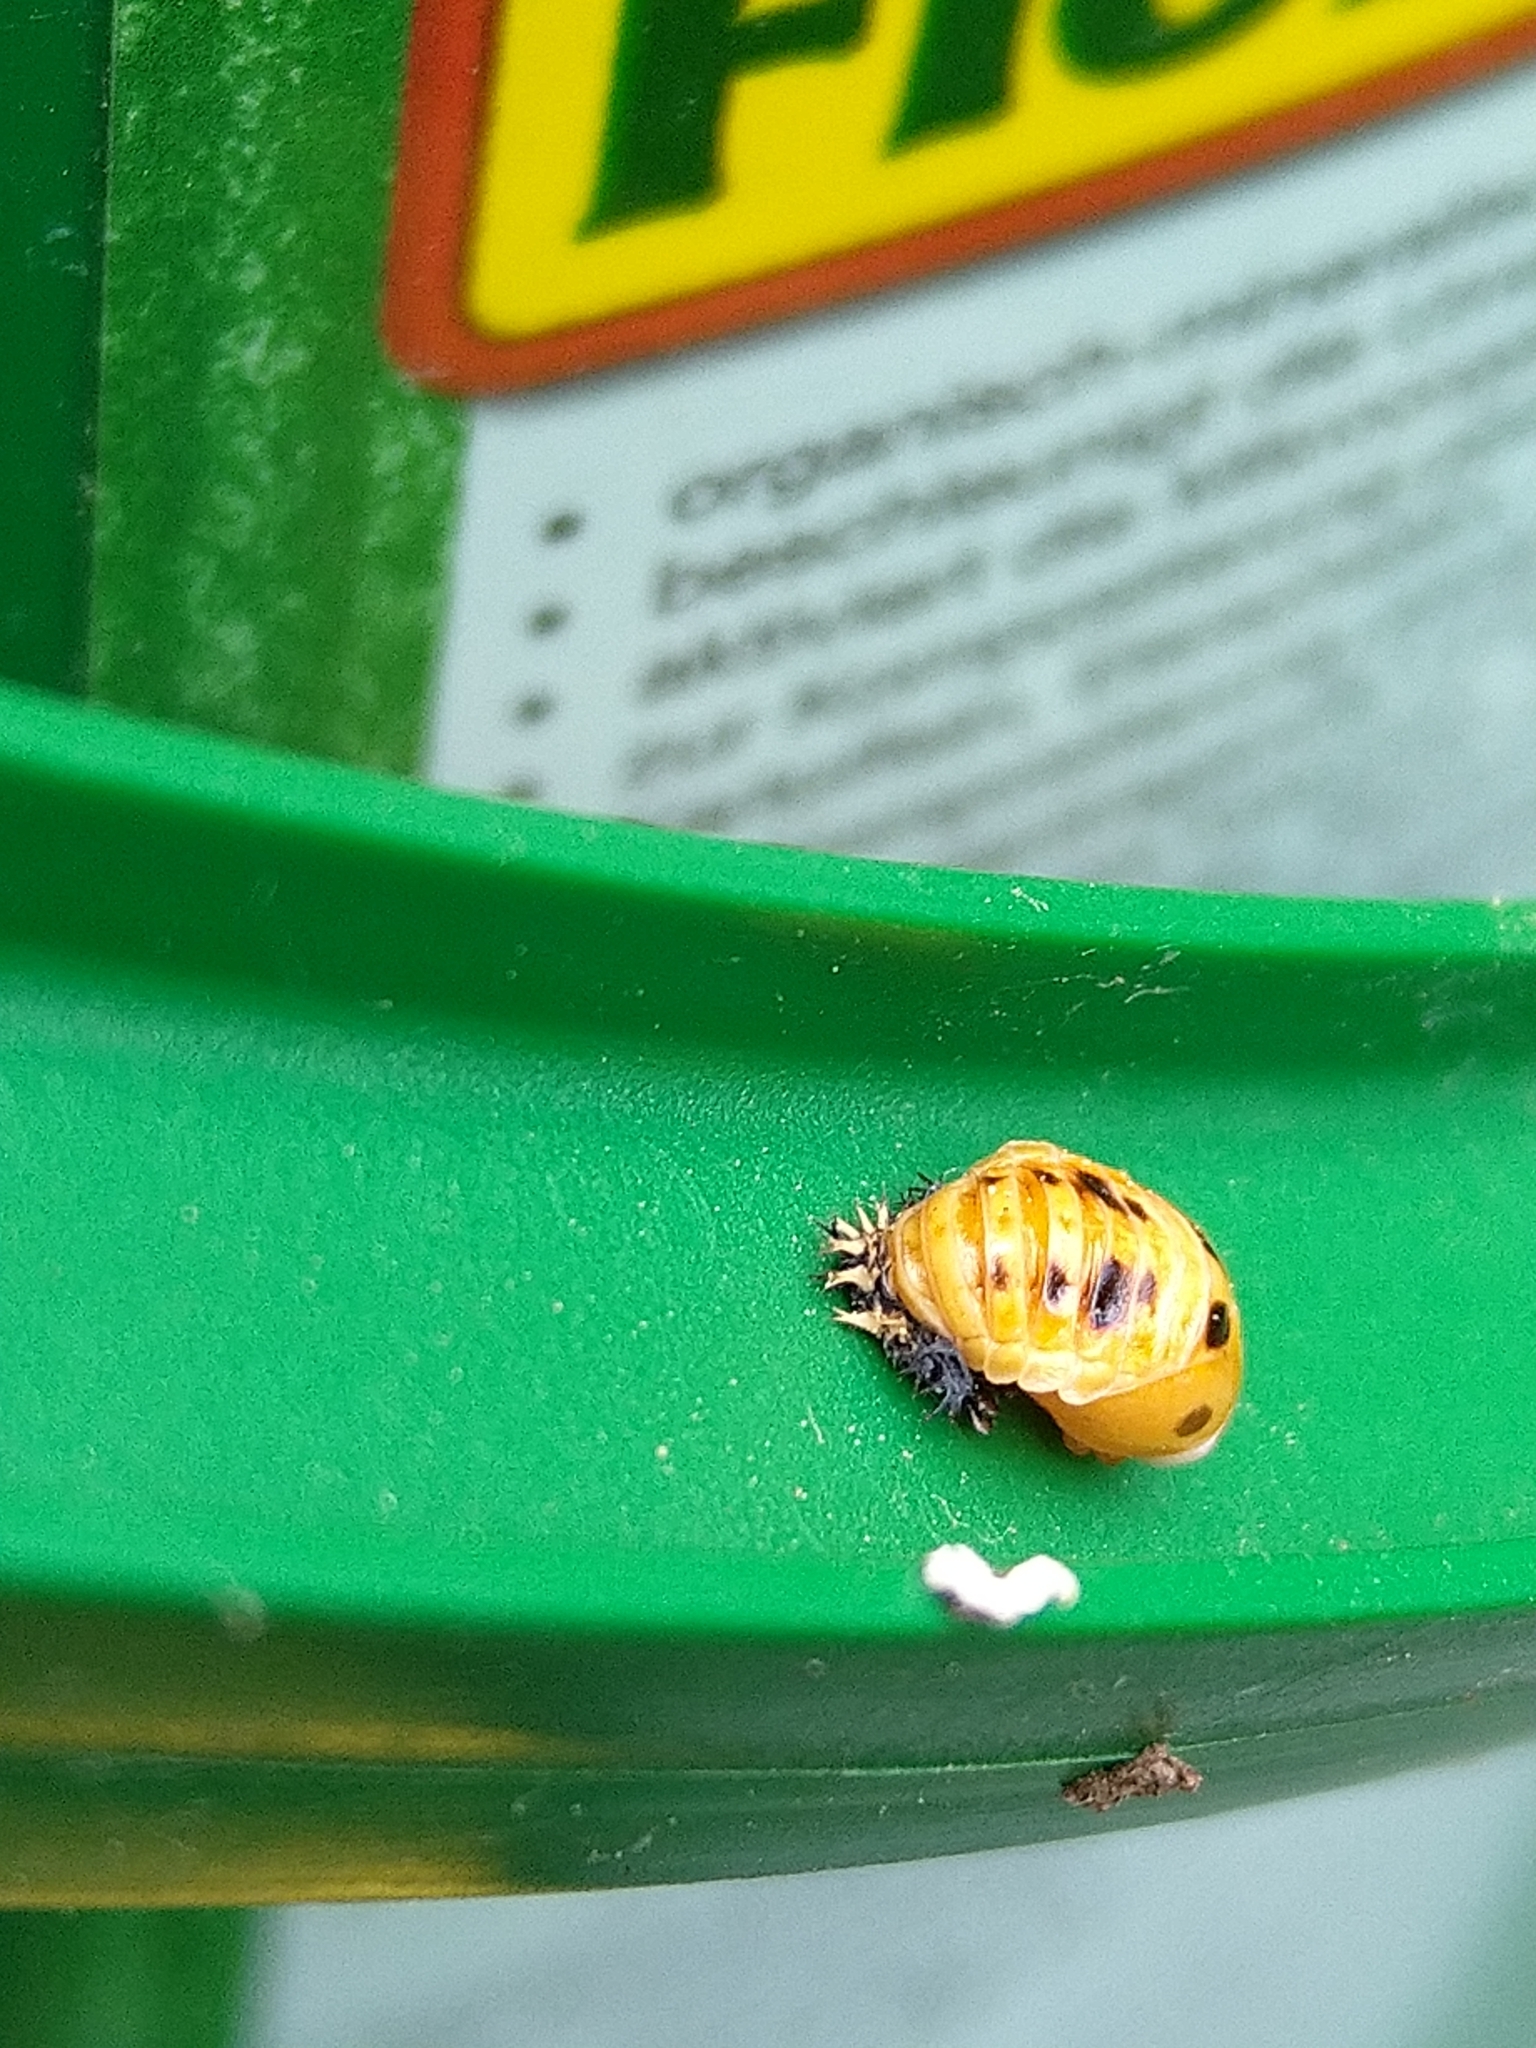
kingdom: Animalia
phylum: Arthropoda
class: Insecta
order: Coleoptera
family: Coccinellidae
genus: Harmonia
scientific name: Harmonia axyridis
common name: Harlequin ladybird
